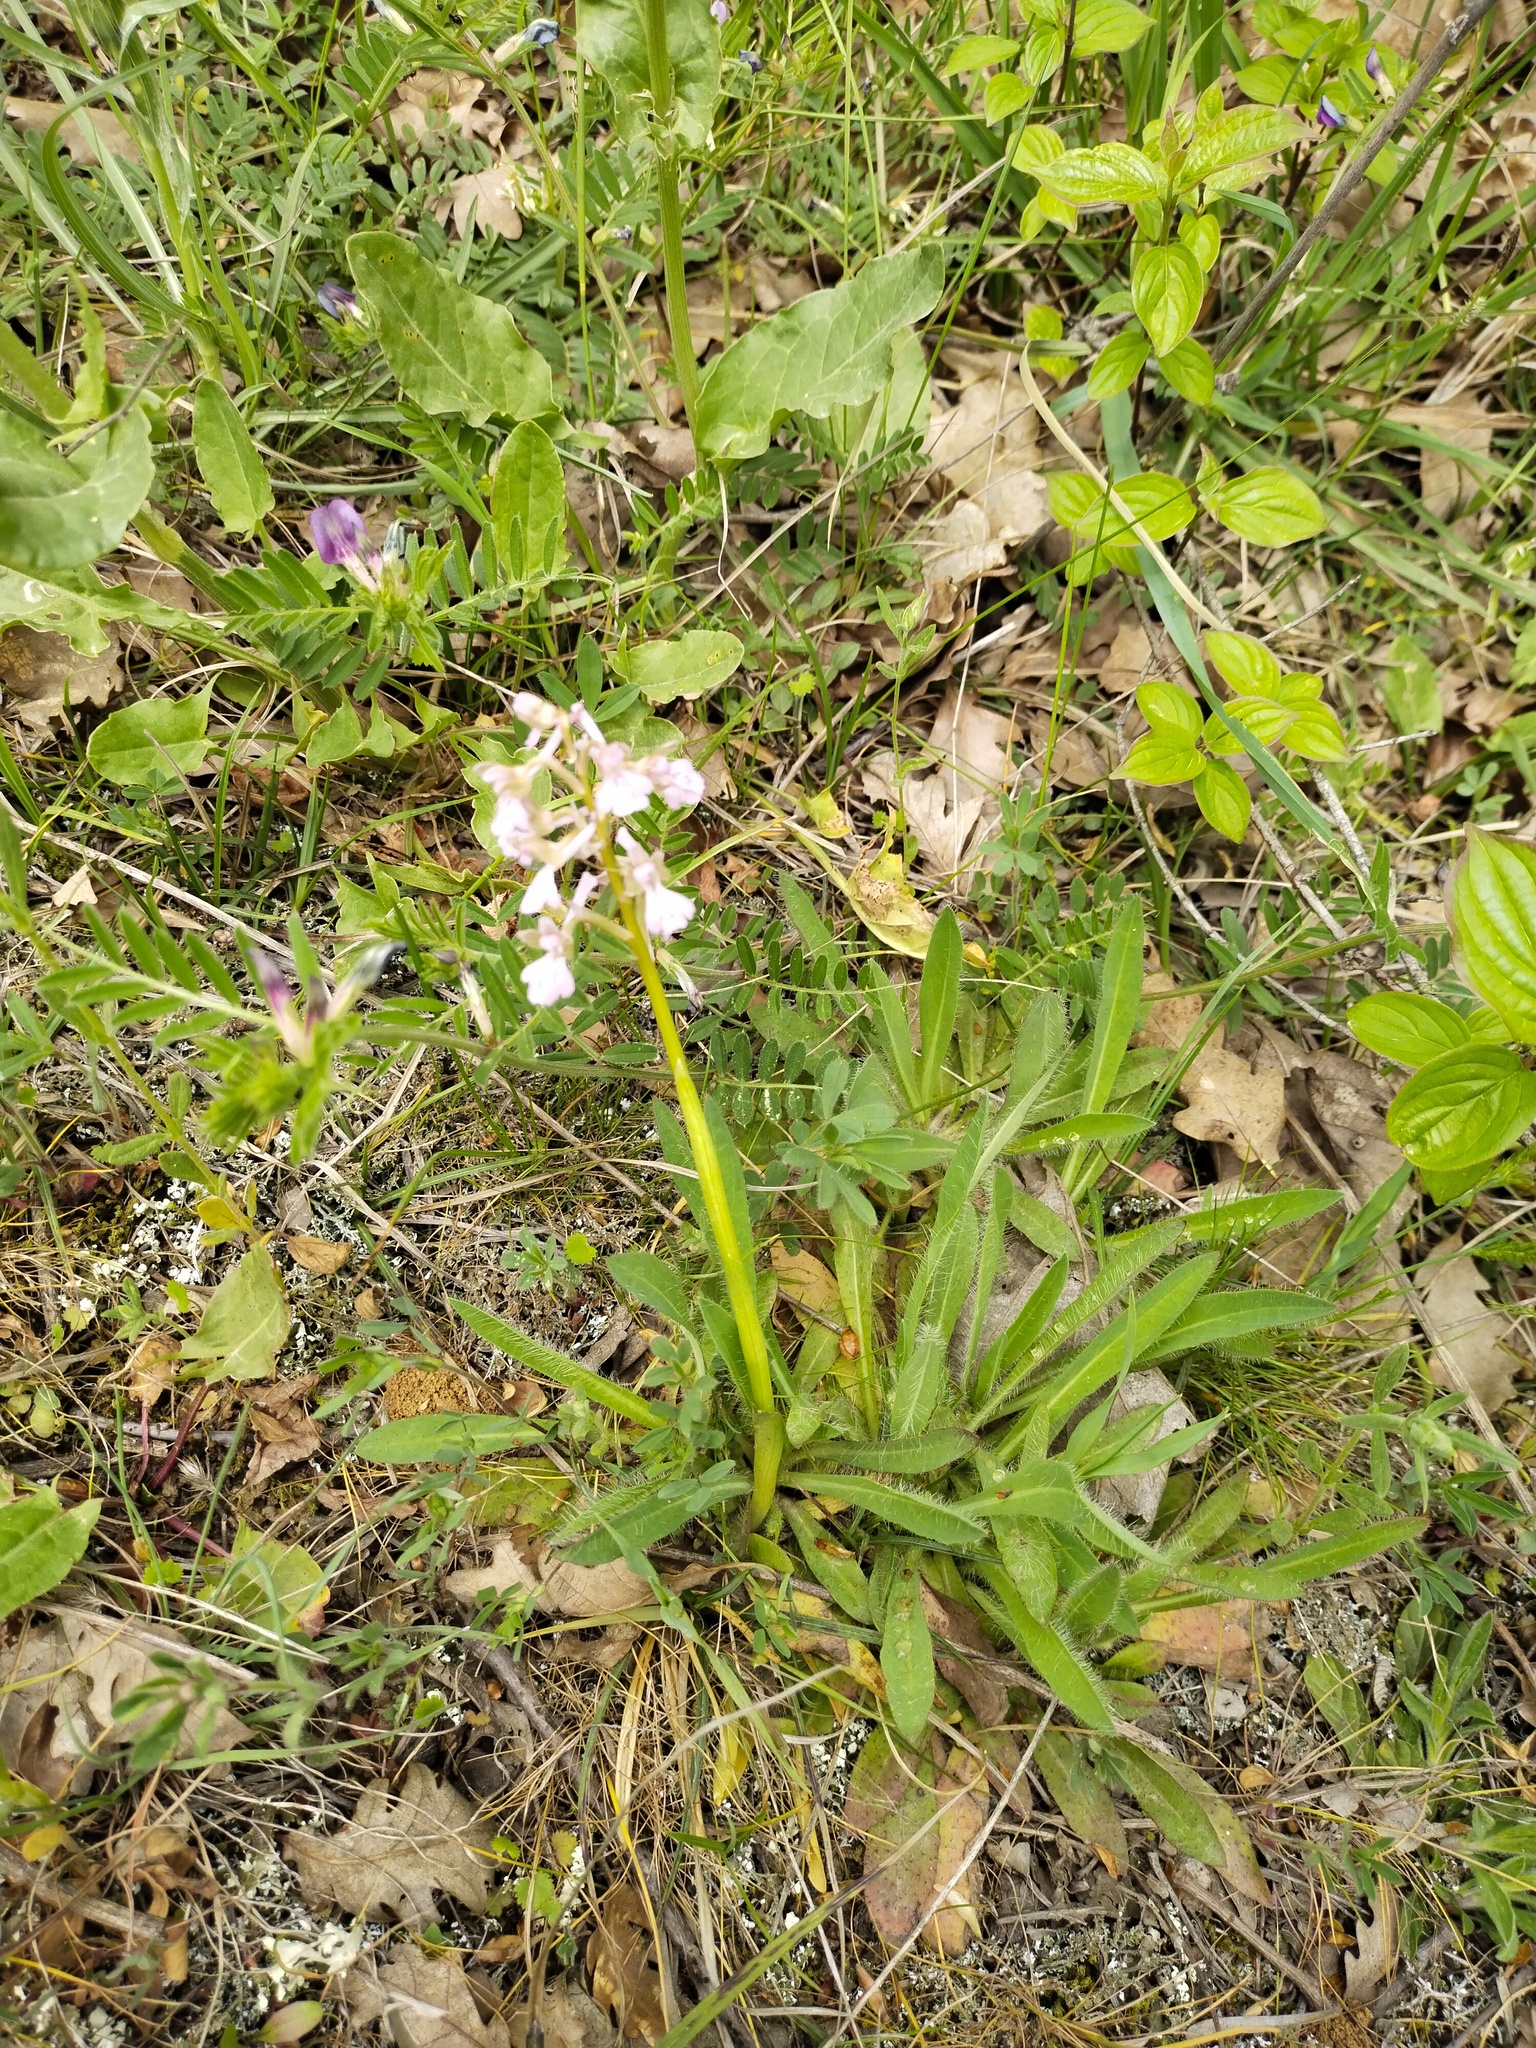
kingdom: Plantae
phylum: Tracheophyta
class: Liliopsida
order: Asparagales
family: Orchidaceae
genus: Anacamptis
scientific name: Anacamptis morio
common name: Green-winged orchid
